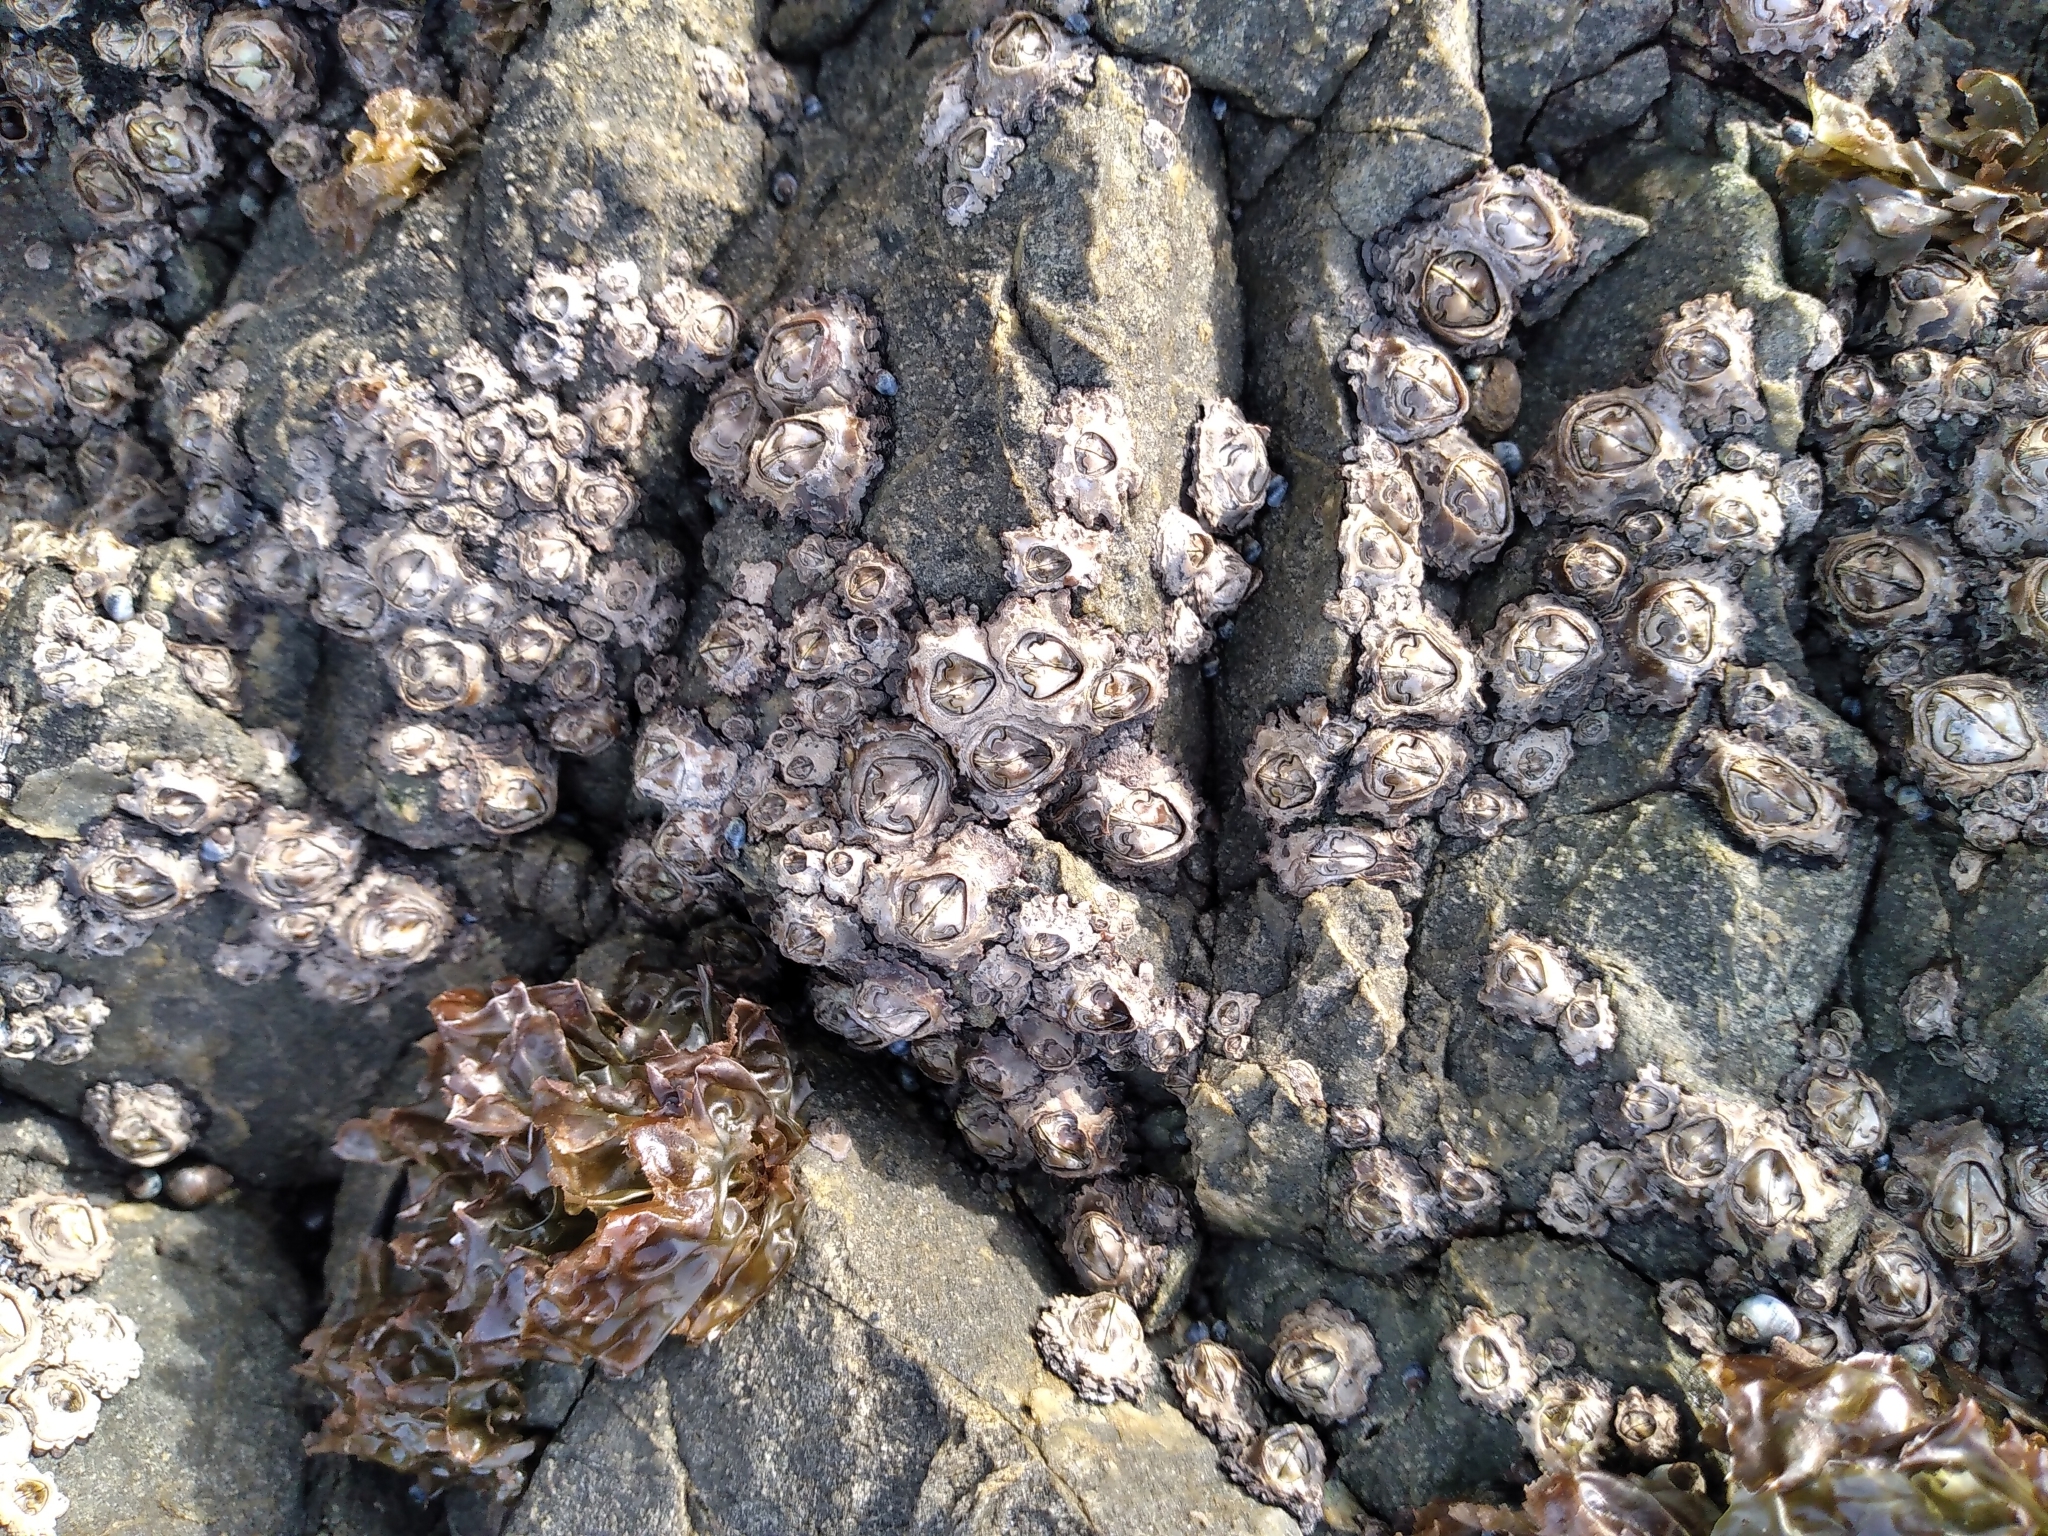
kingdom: Animalia
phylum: Arthropoda
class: Maxillopoda
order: Sessilia
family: Chthamalidae
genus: Chamaesipho
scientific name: Chamaesipho brunnea
